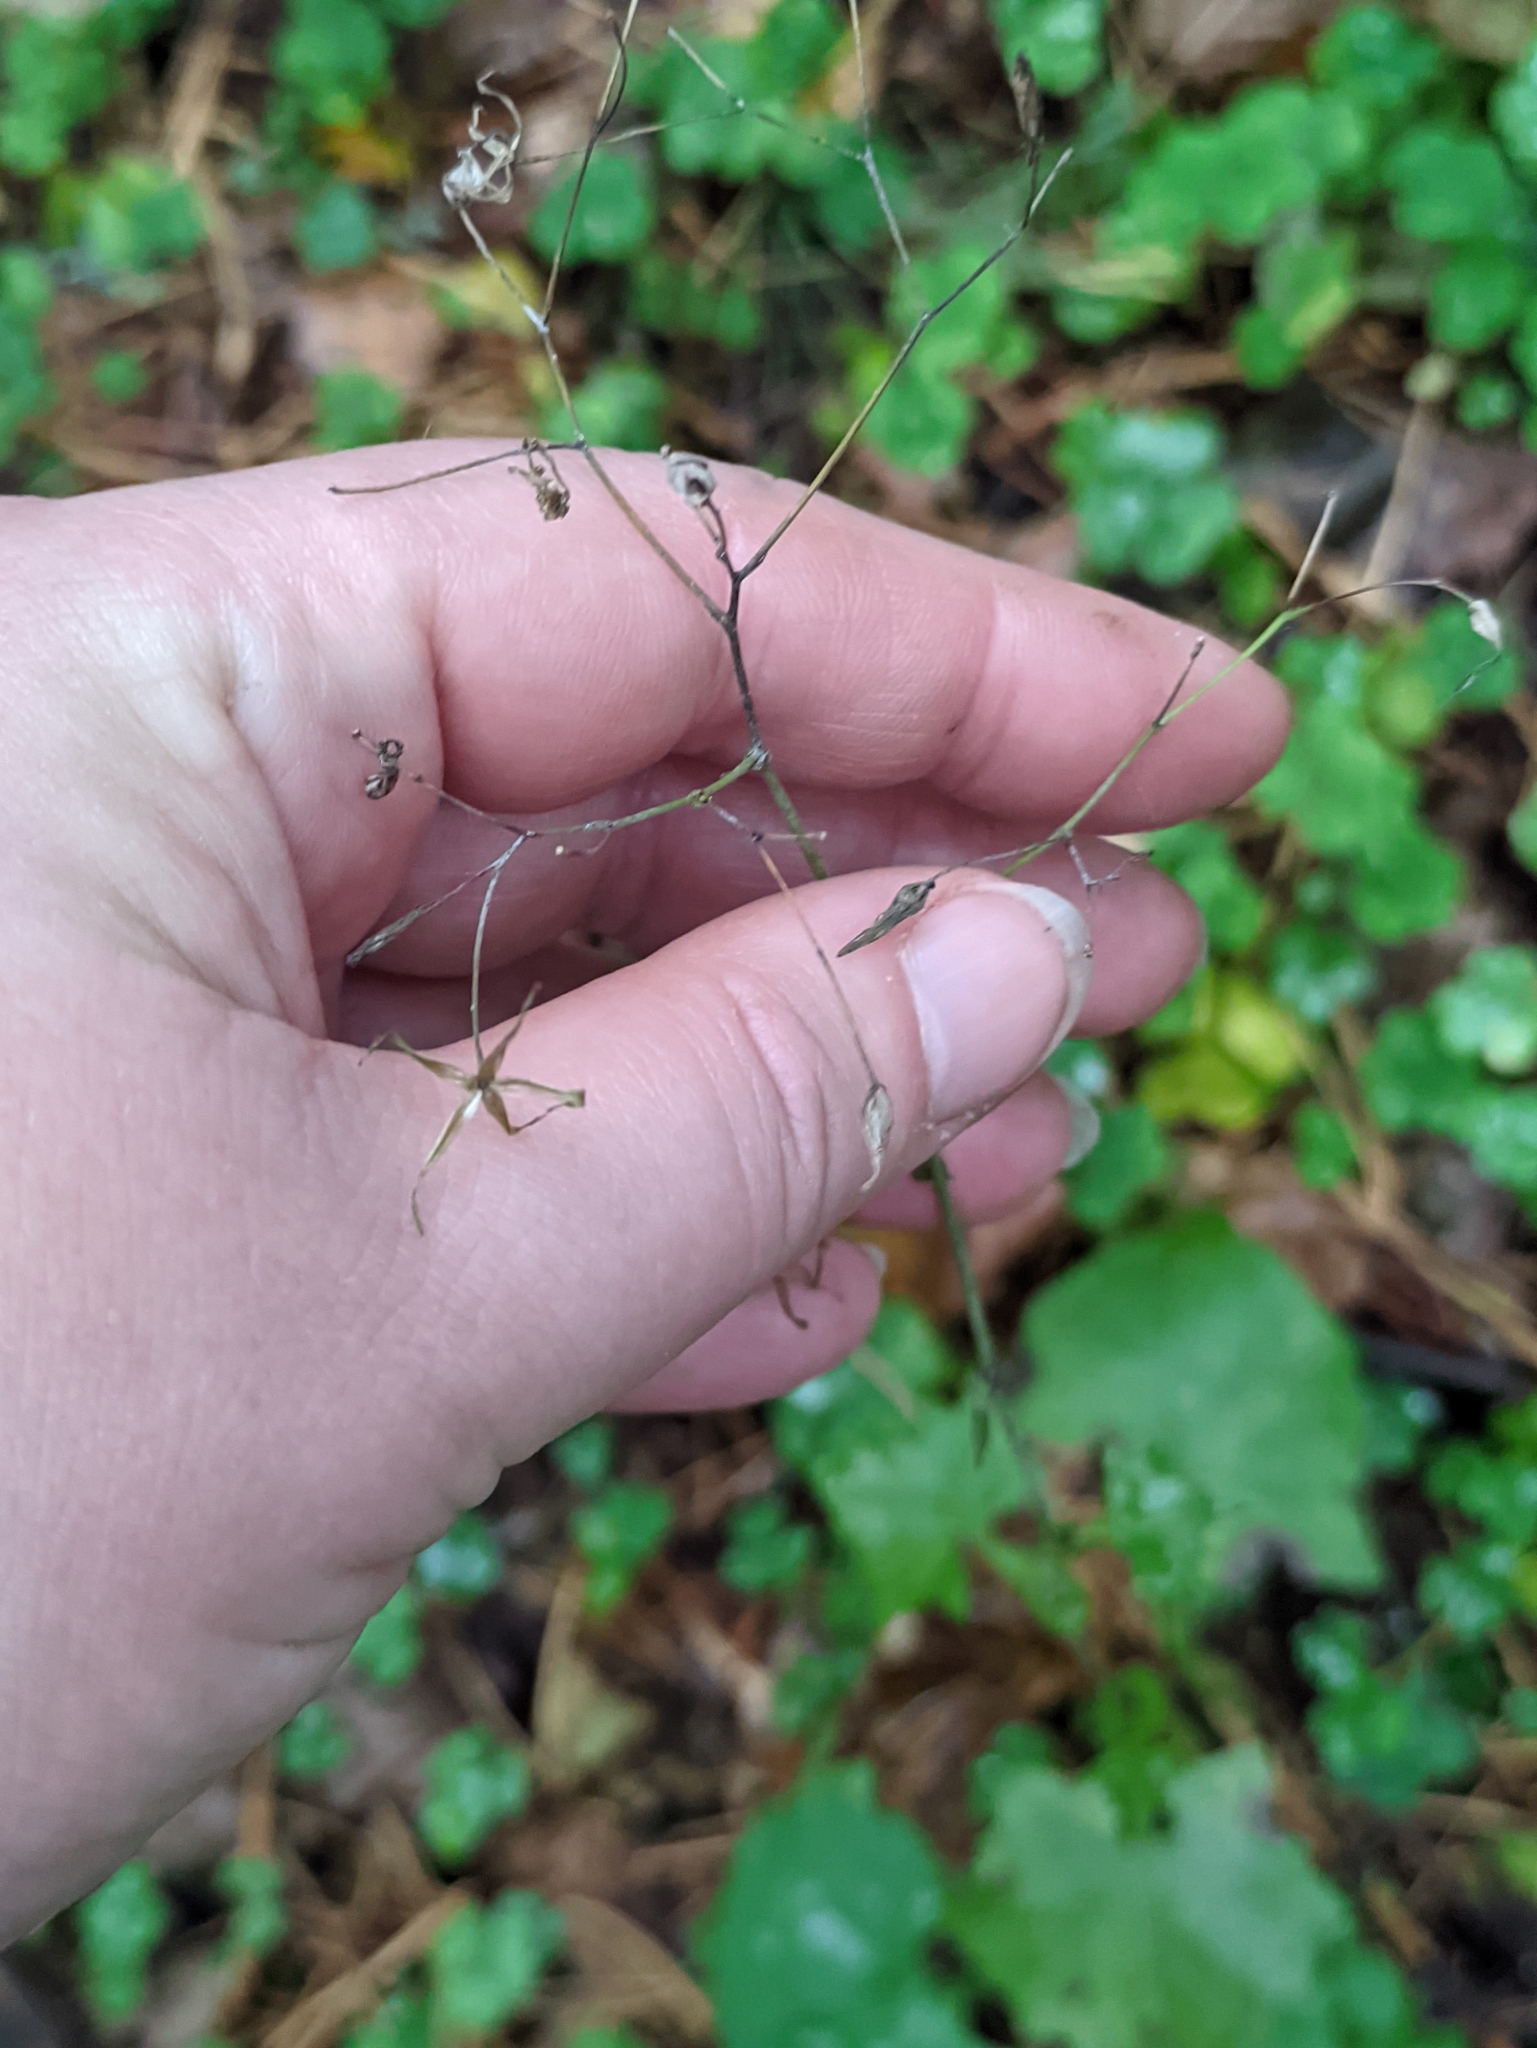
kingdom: Plantae
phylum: Tracheophyta
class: Magnoliopsida
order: Asterales
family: Asteraceae
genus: Mycelis
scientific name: Mycelis muralis
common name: Wall lettuce
